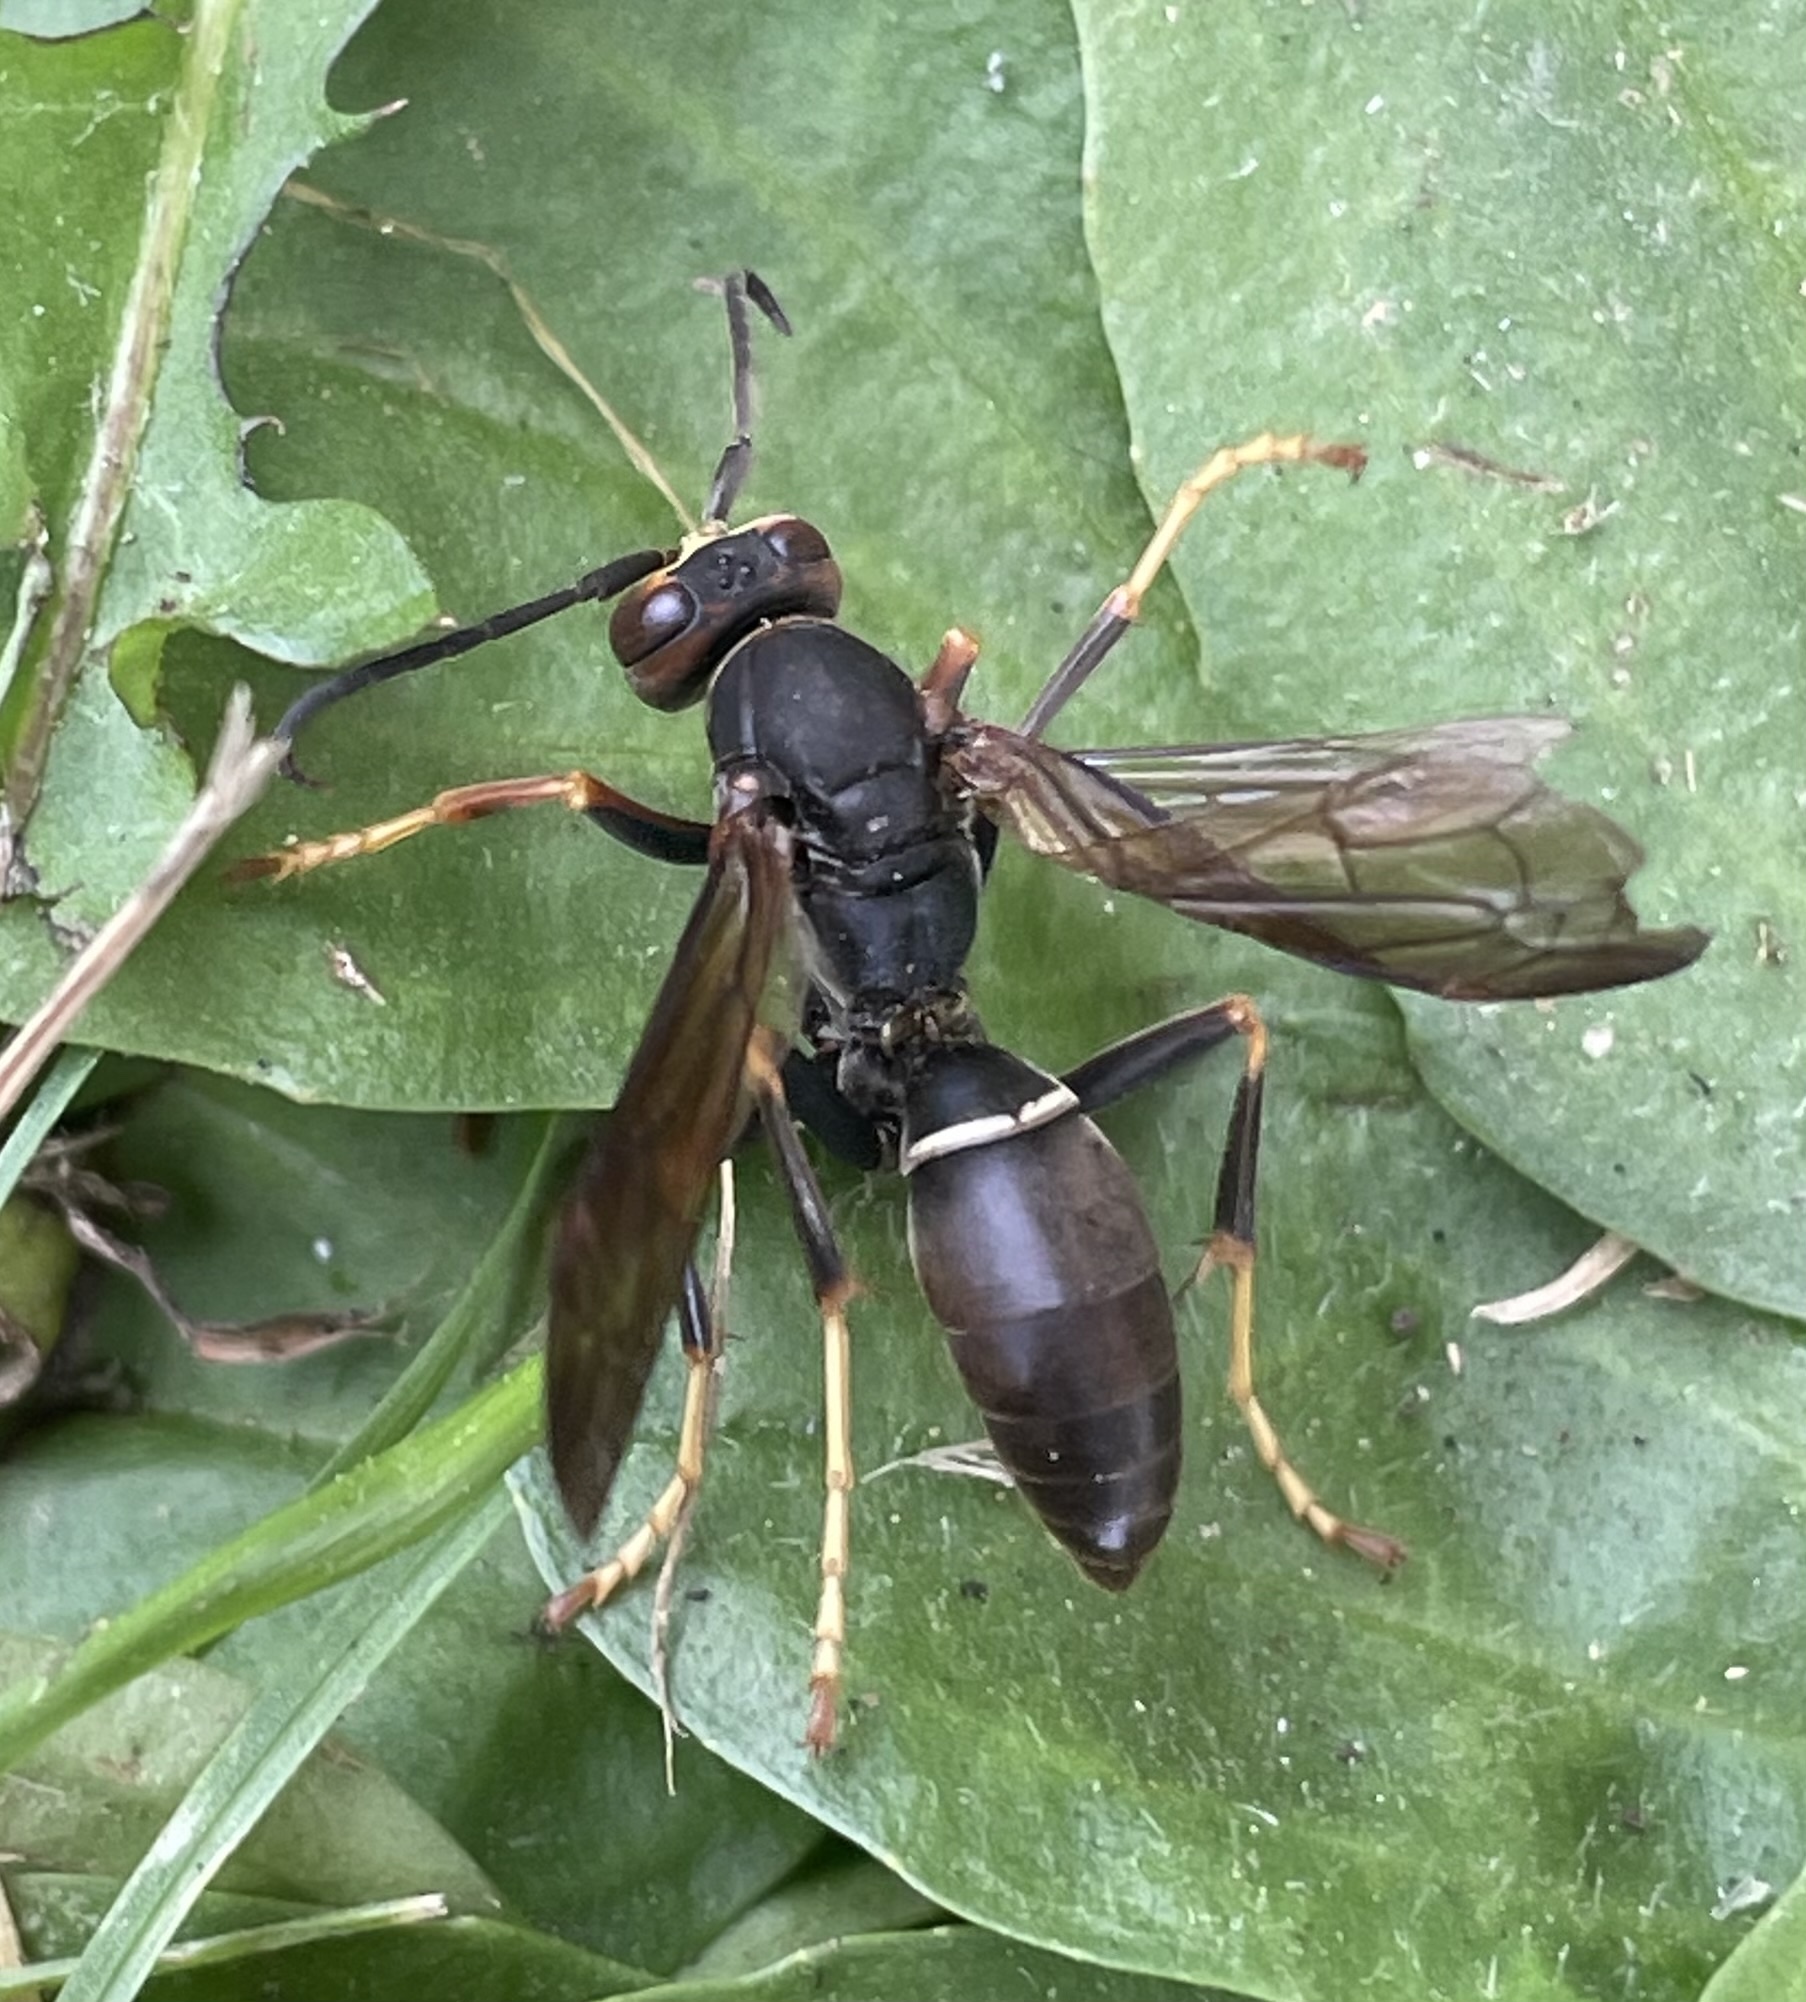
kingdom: Animalia
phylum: Arthropoda
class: Insecta
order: Hymenoptera
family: Eumenidae
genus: Polistes
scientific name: Polistes parametricus
